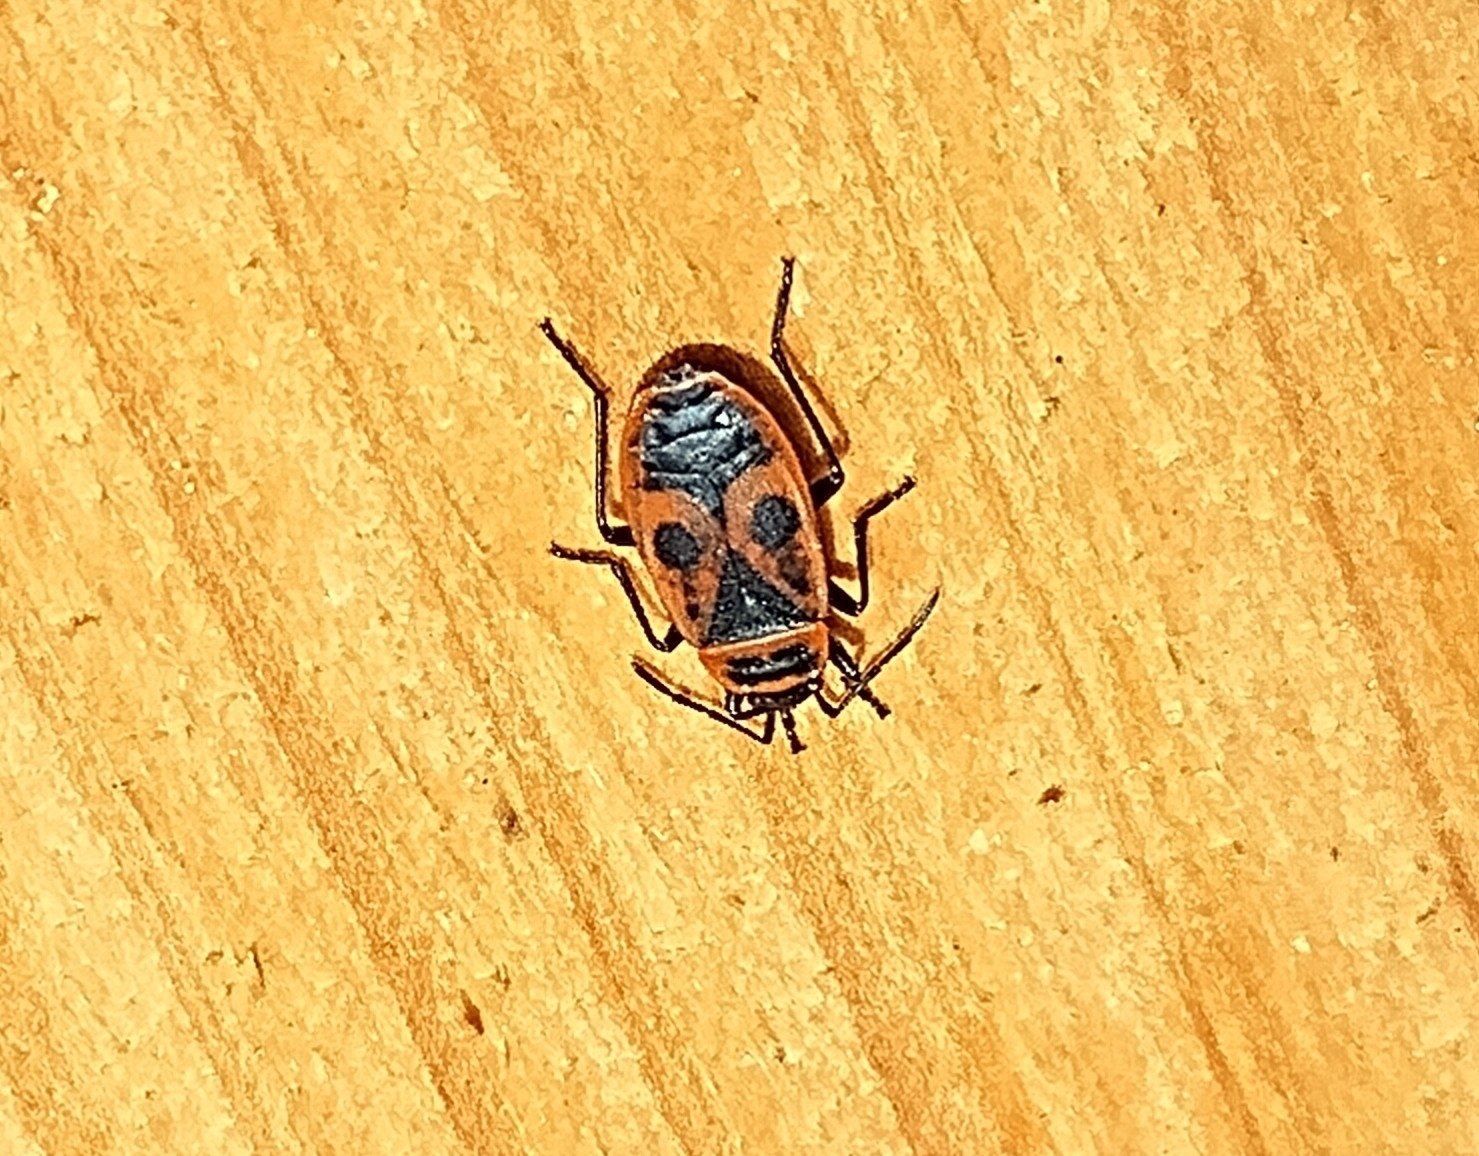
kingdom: Animalia
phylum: Arthropoda
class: Insecta
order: Hemiptera
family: Pyrrhocoridae
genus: Pyrrhocoris
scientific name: Pyrrhocoris apterus
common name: Firebug
